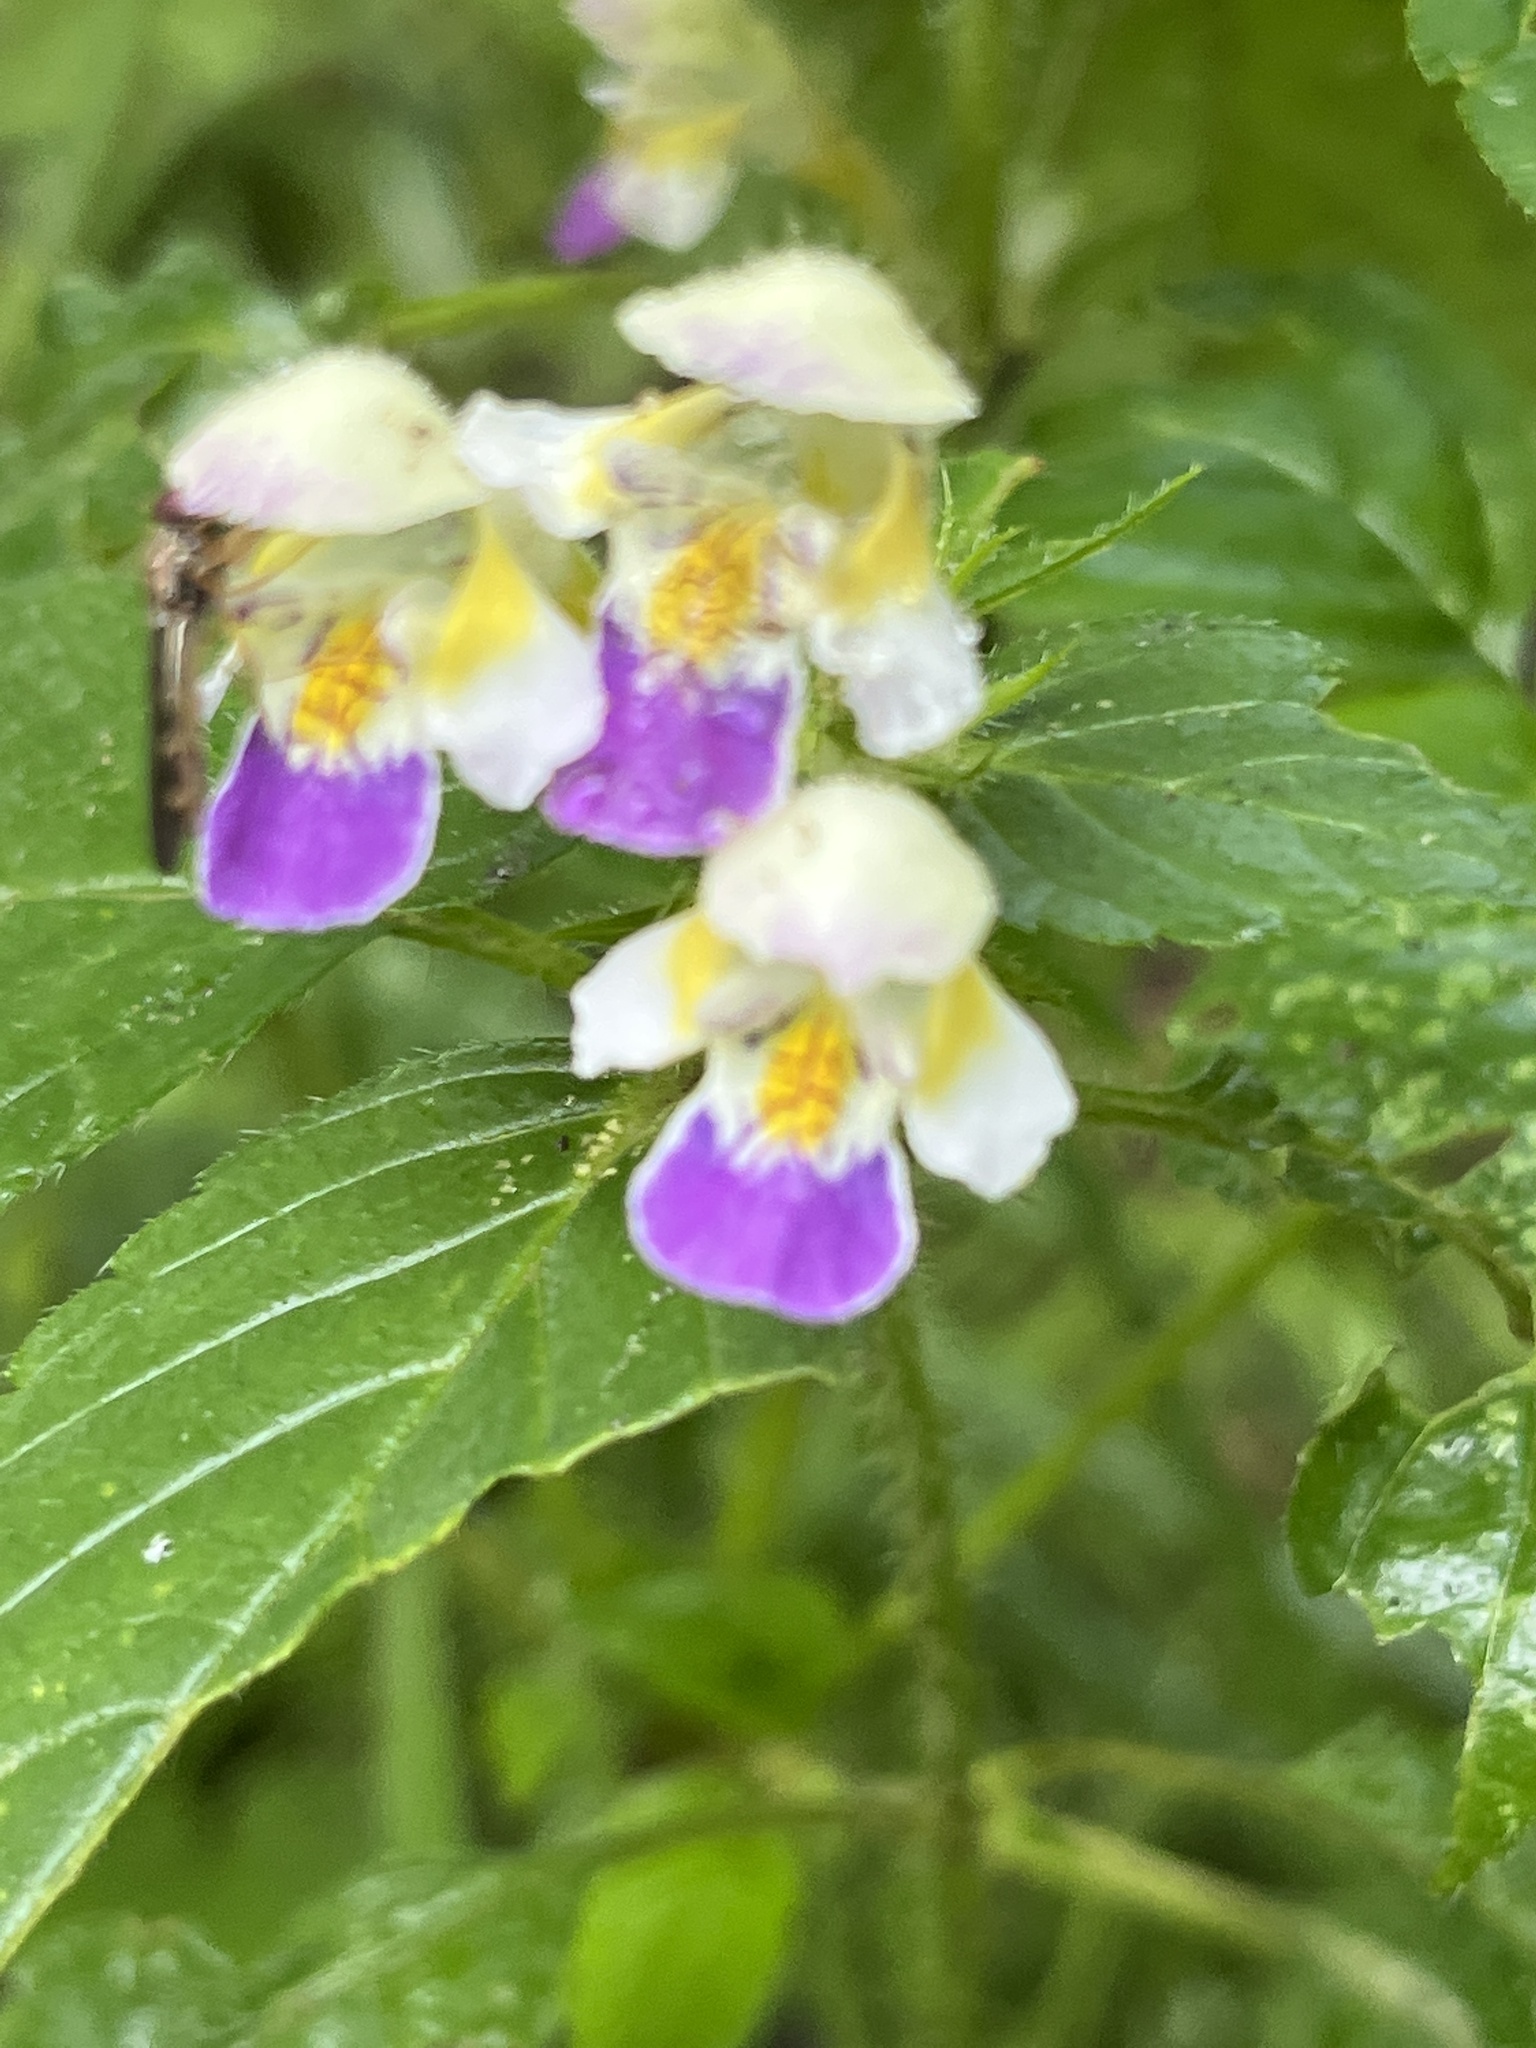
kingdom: Plantae
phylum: Tracheophyta
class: Magnoliopsida
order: Lamiales
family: Lamiaceae
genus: Galeopsis
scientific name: Galeopsis speciosa
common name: Large-flowered hemp-nettle
